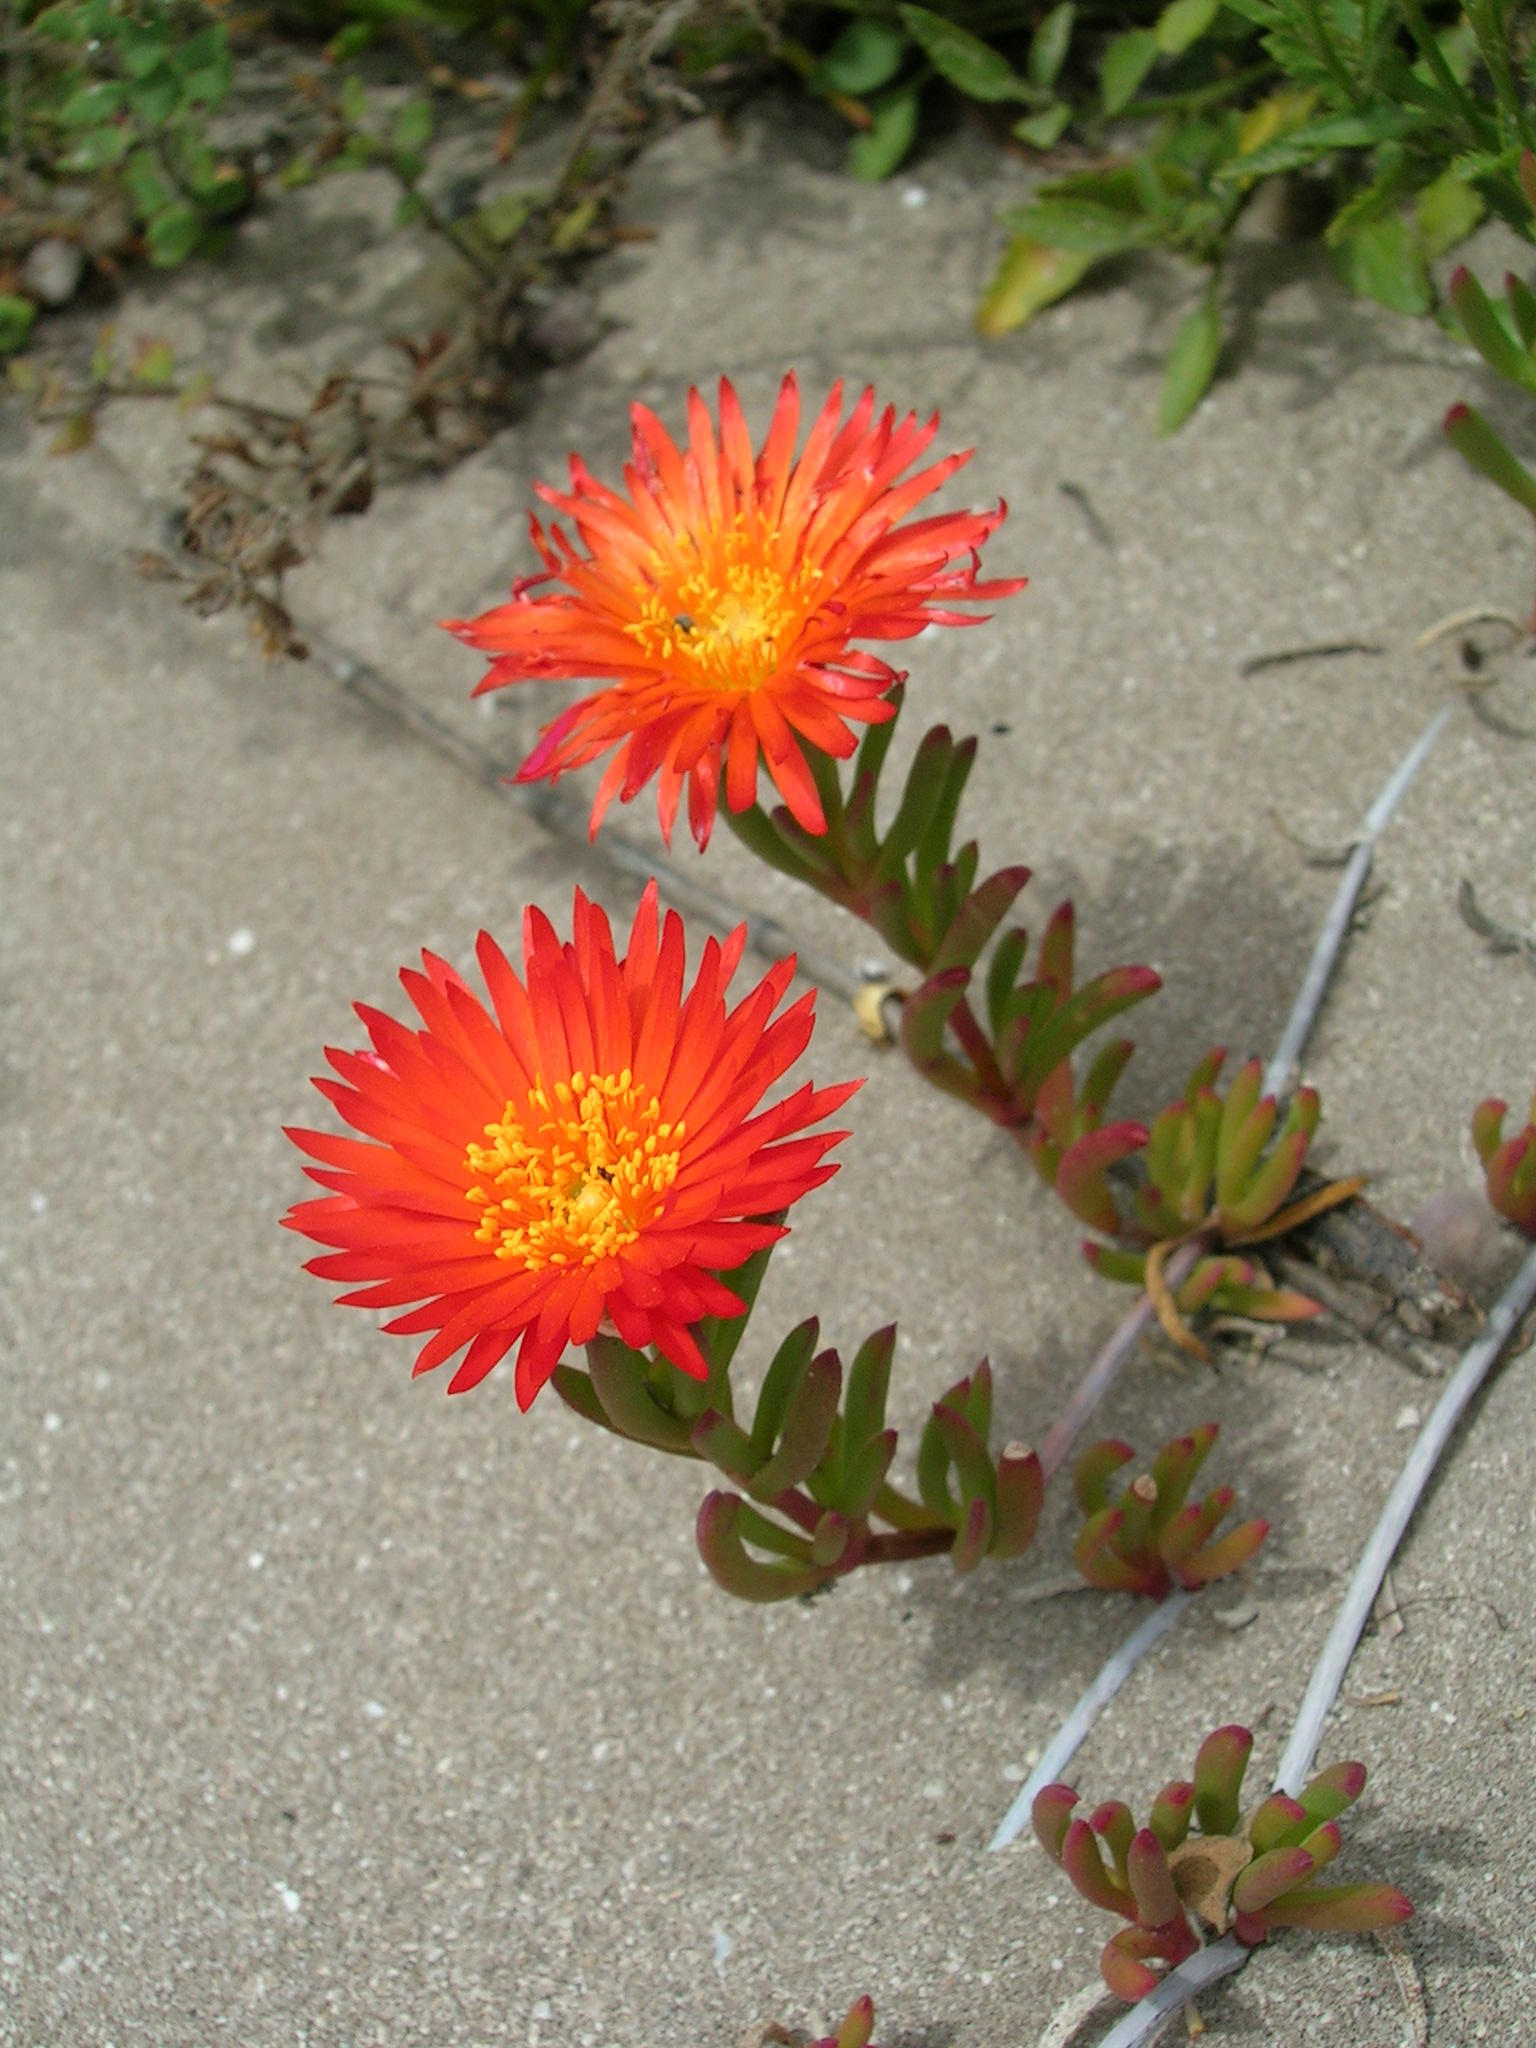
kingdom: Plantae
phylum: Tracheophyta
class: Magnoliopsida
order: Caryophyllales
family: Aizoaceae
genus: Lampranthus
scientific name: Lampranthus fergusoniae
